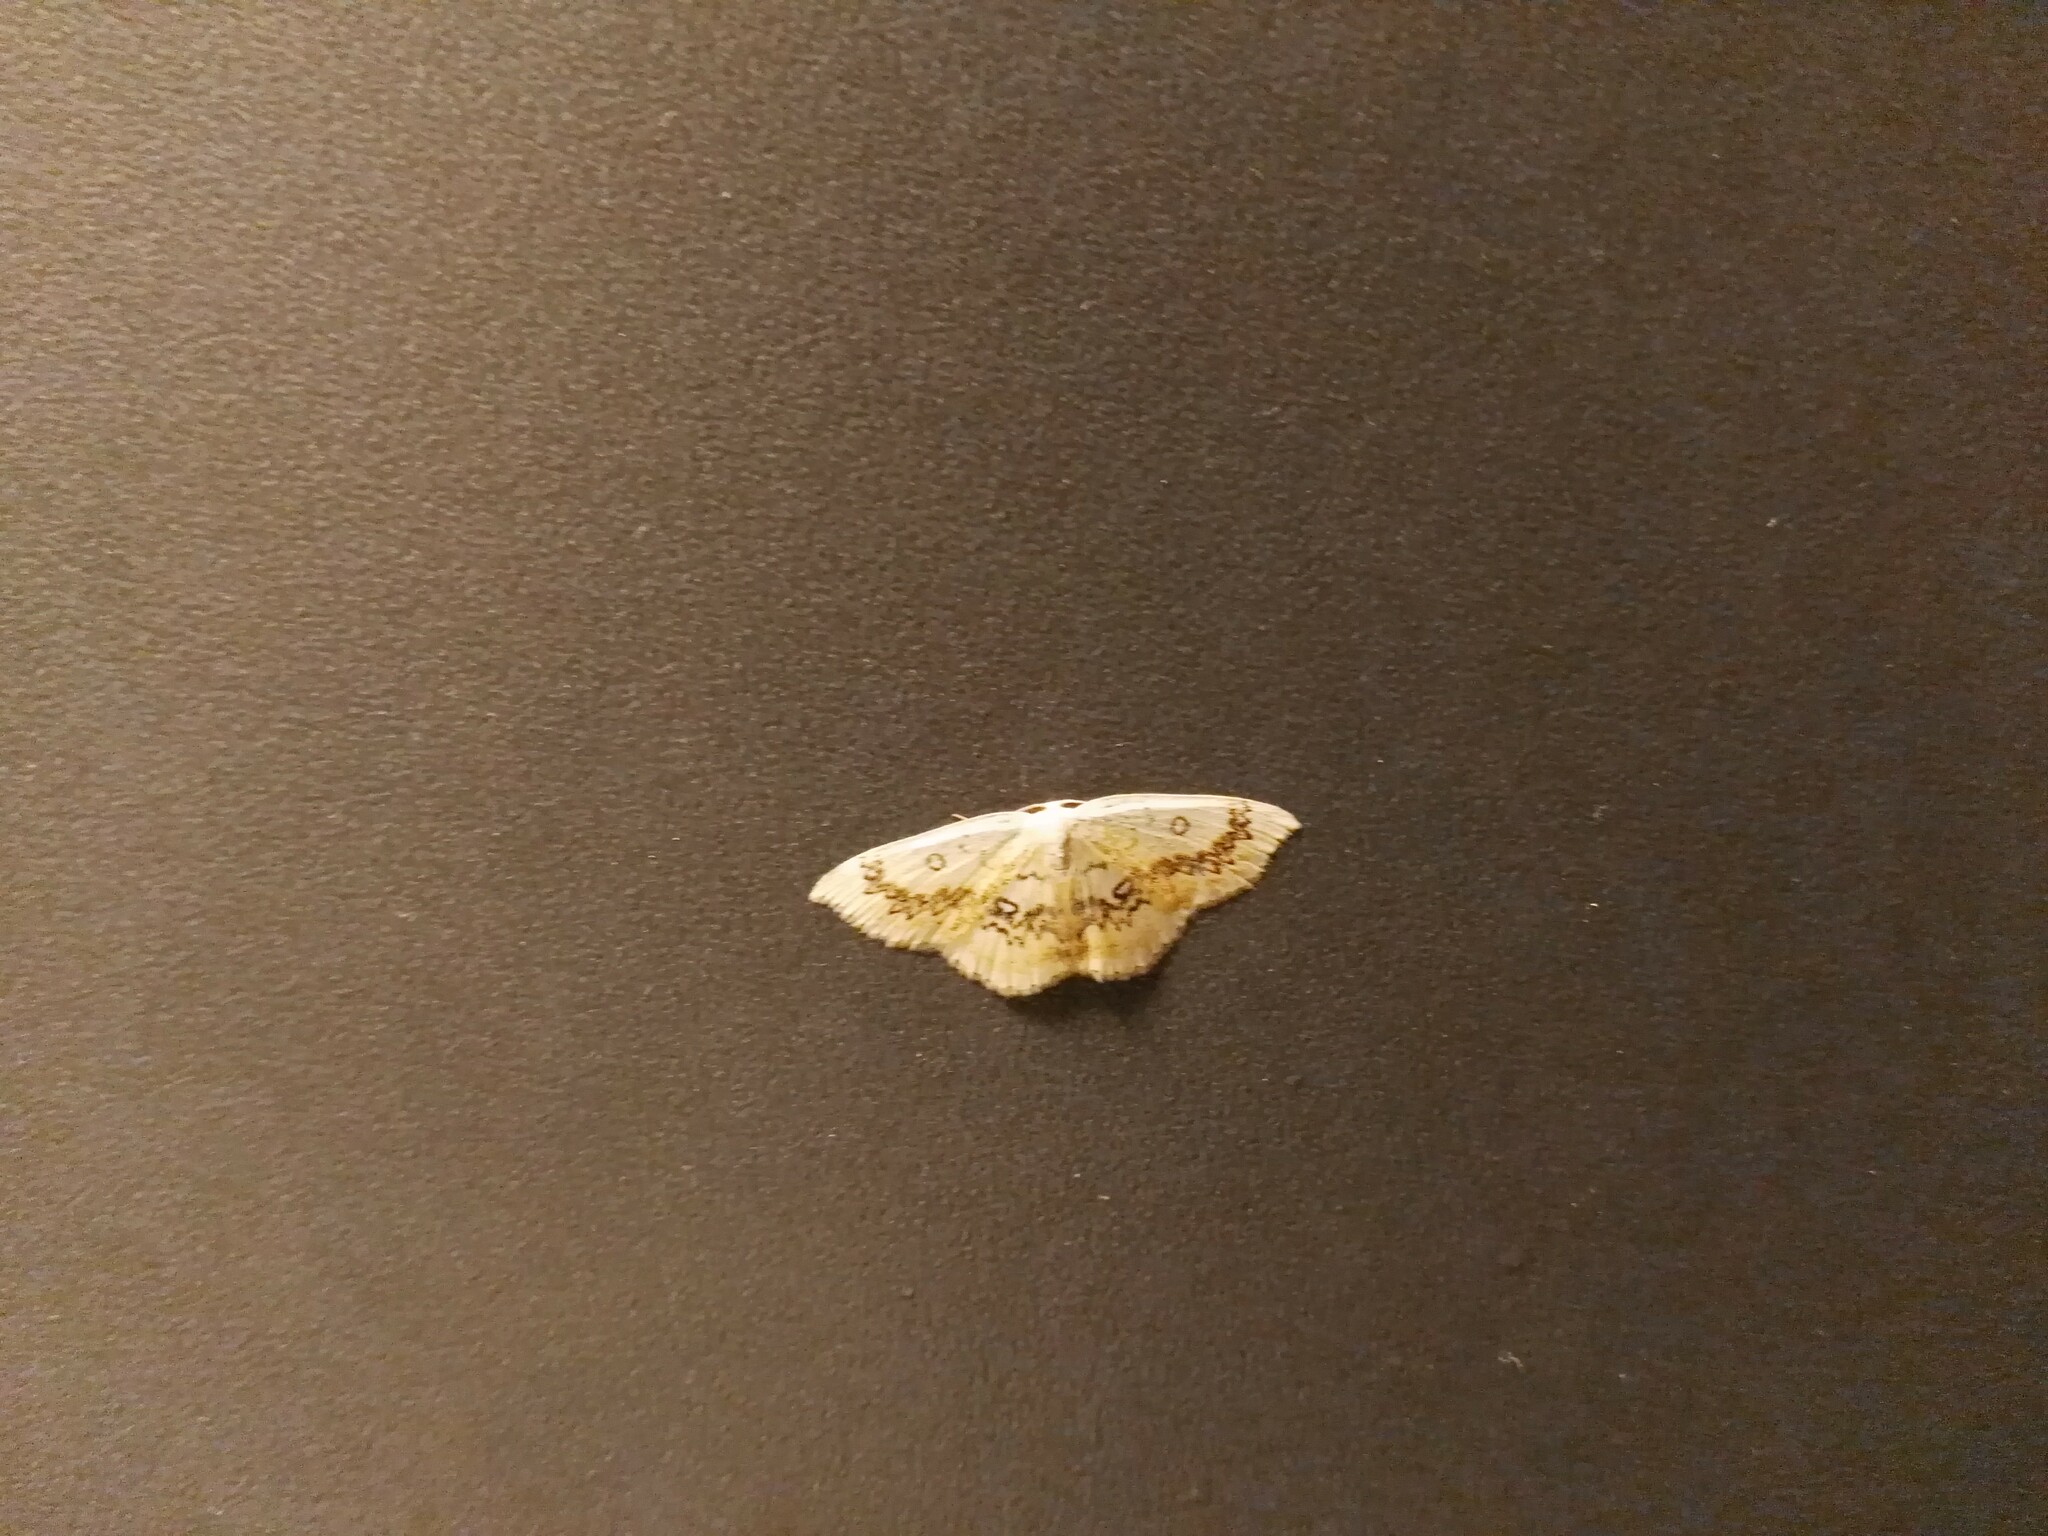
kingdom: Animalia
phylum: Arthropoda
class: Insecta
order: Lepidoptera
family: Geometridae
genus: Cyclophora
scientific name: Cyclophora annularia
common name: Mocha
